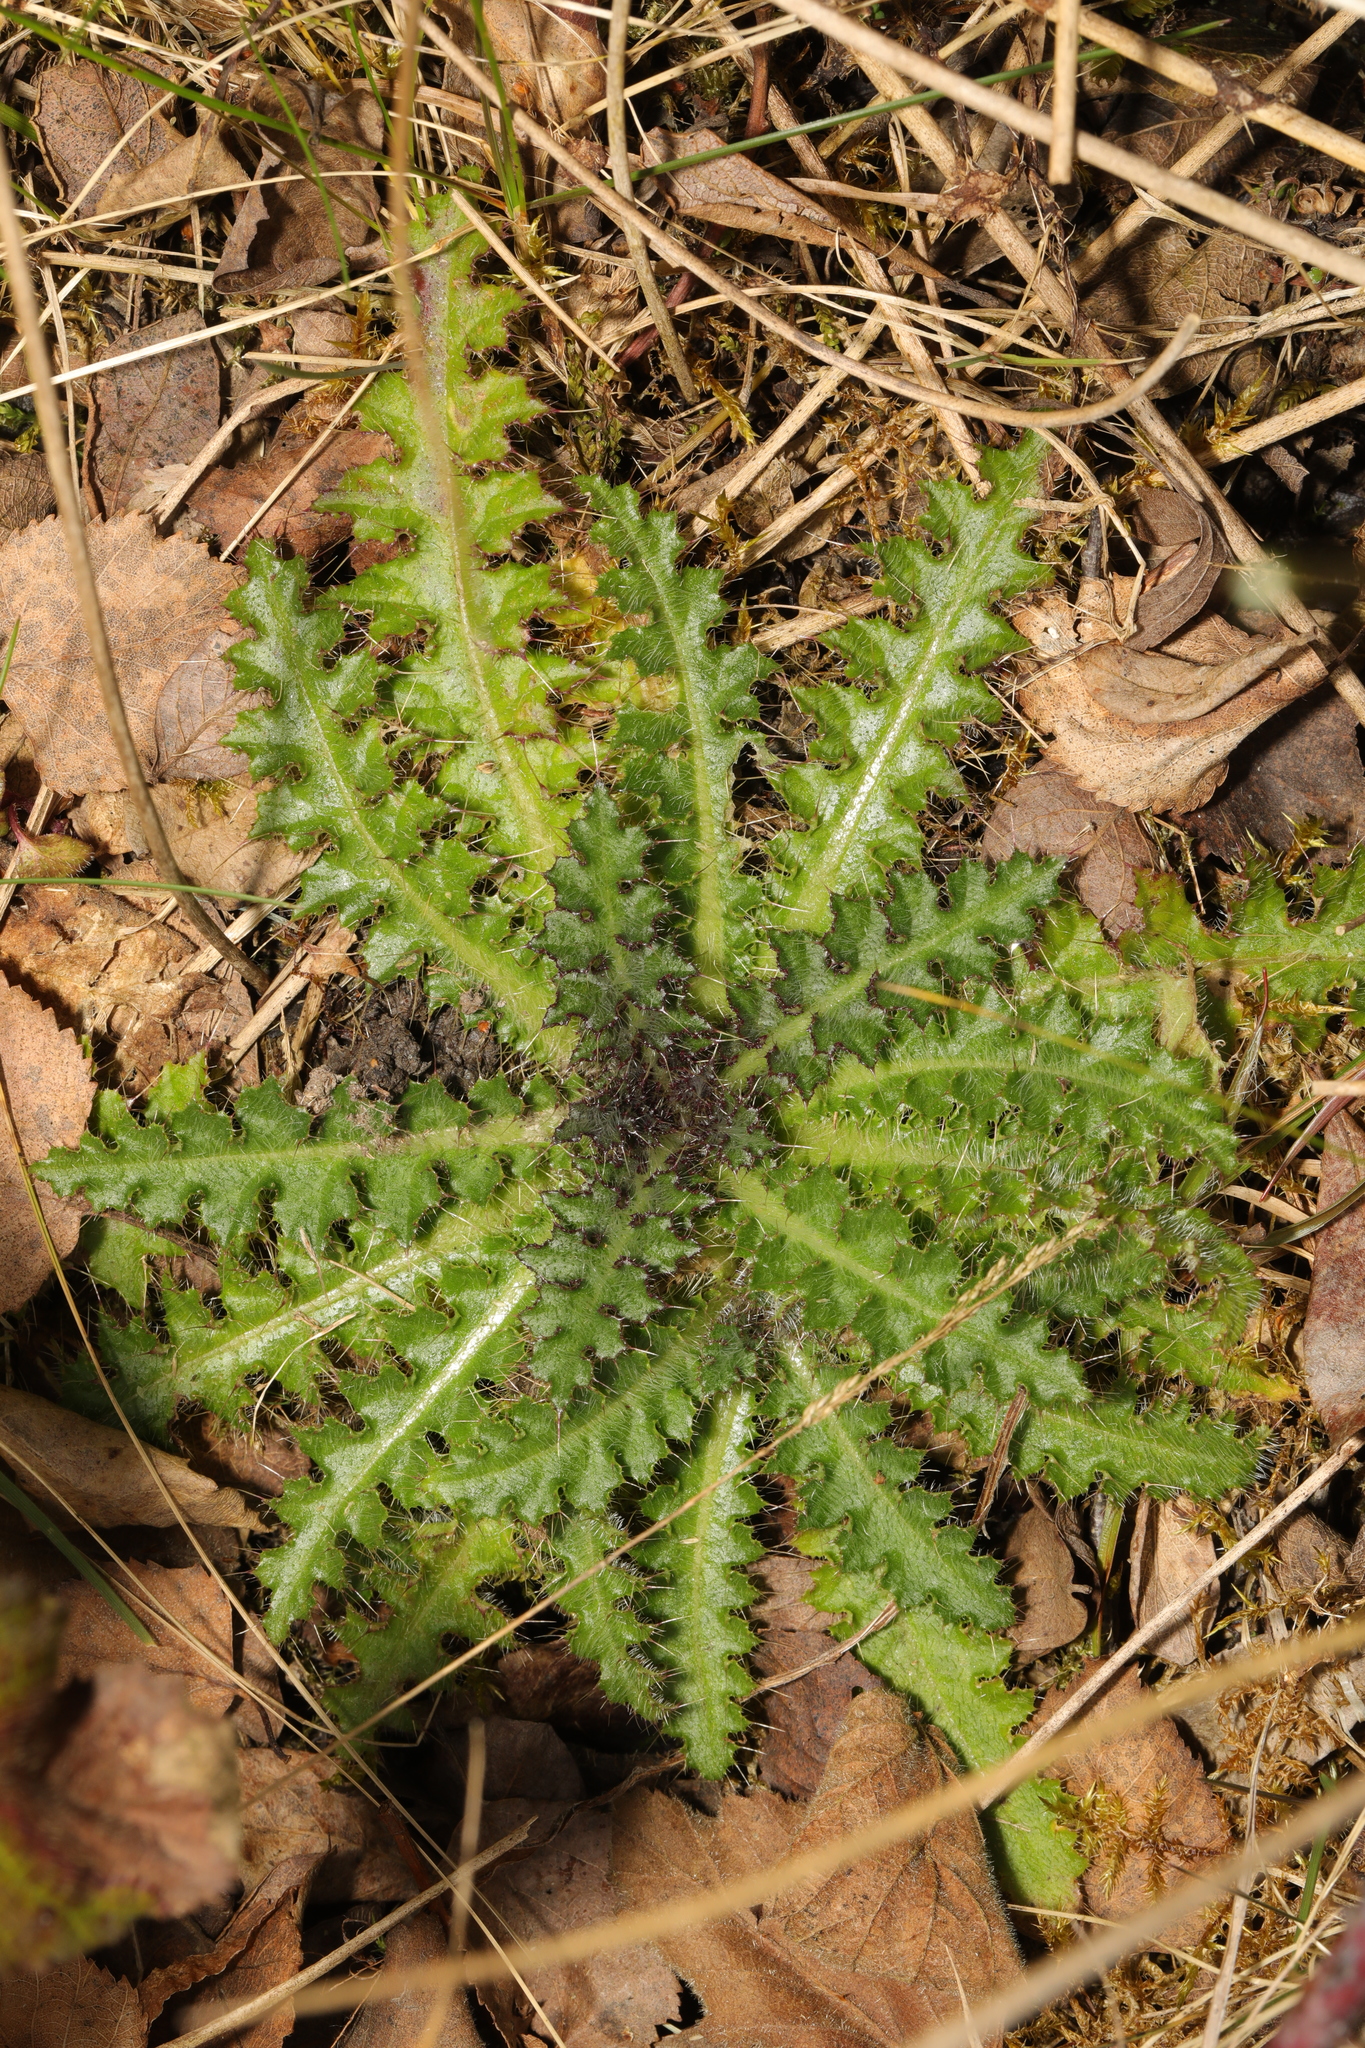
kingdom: Plantae
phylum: Tracheophyta
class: Magnoliopsida
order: Asterales
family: Asteraceae
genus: Cirsium
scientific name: Cirsium palustre
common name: Marsh thistle
